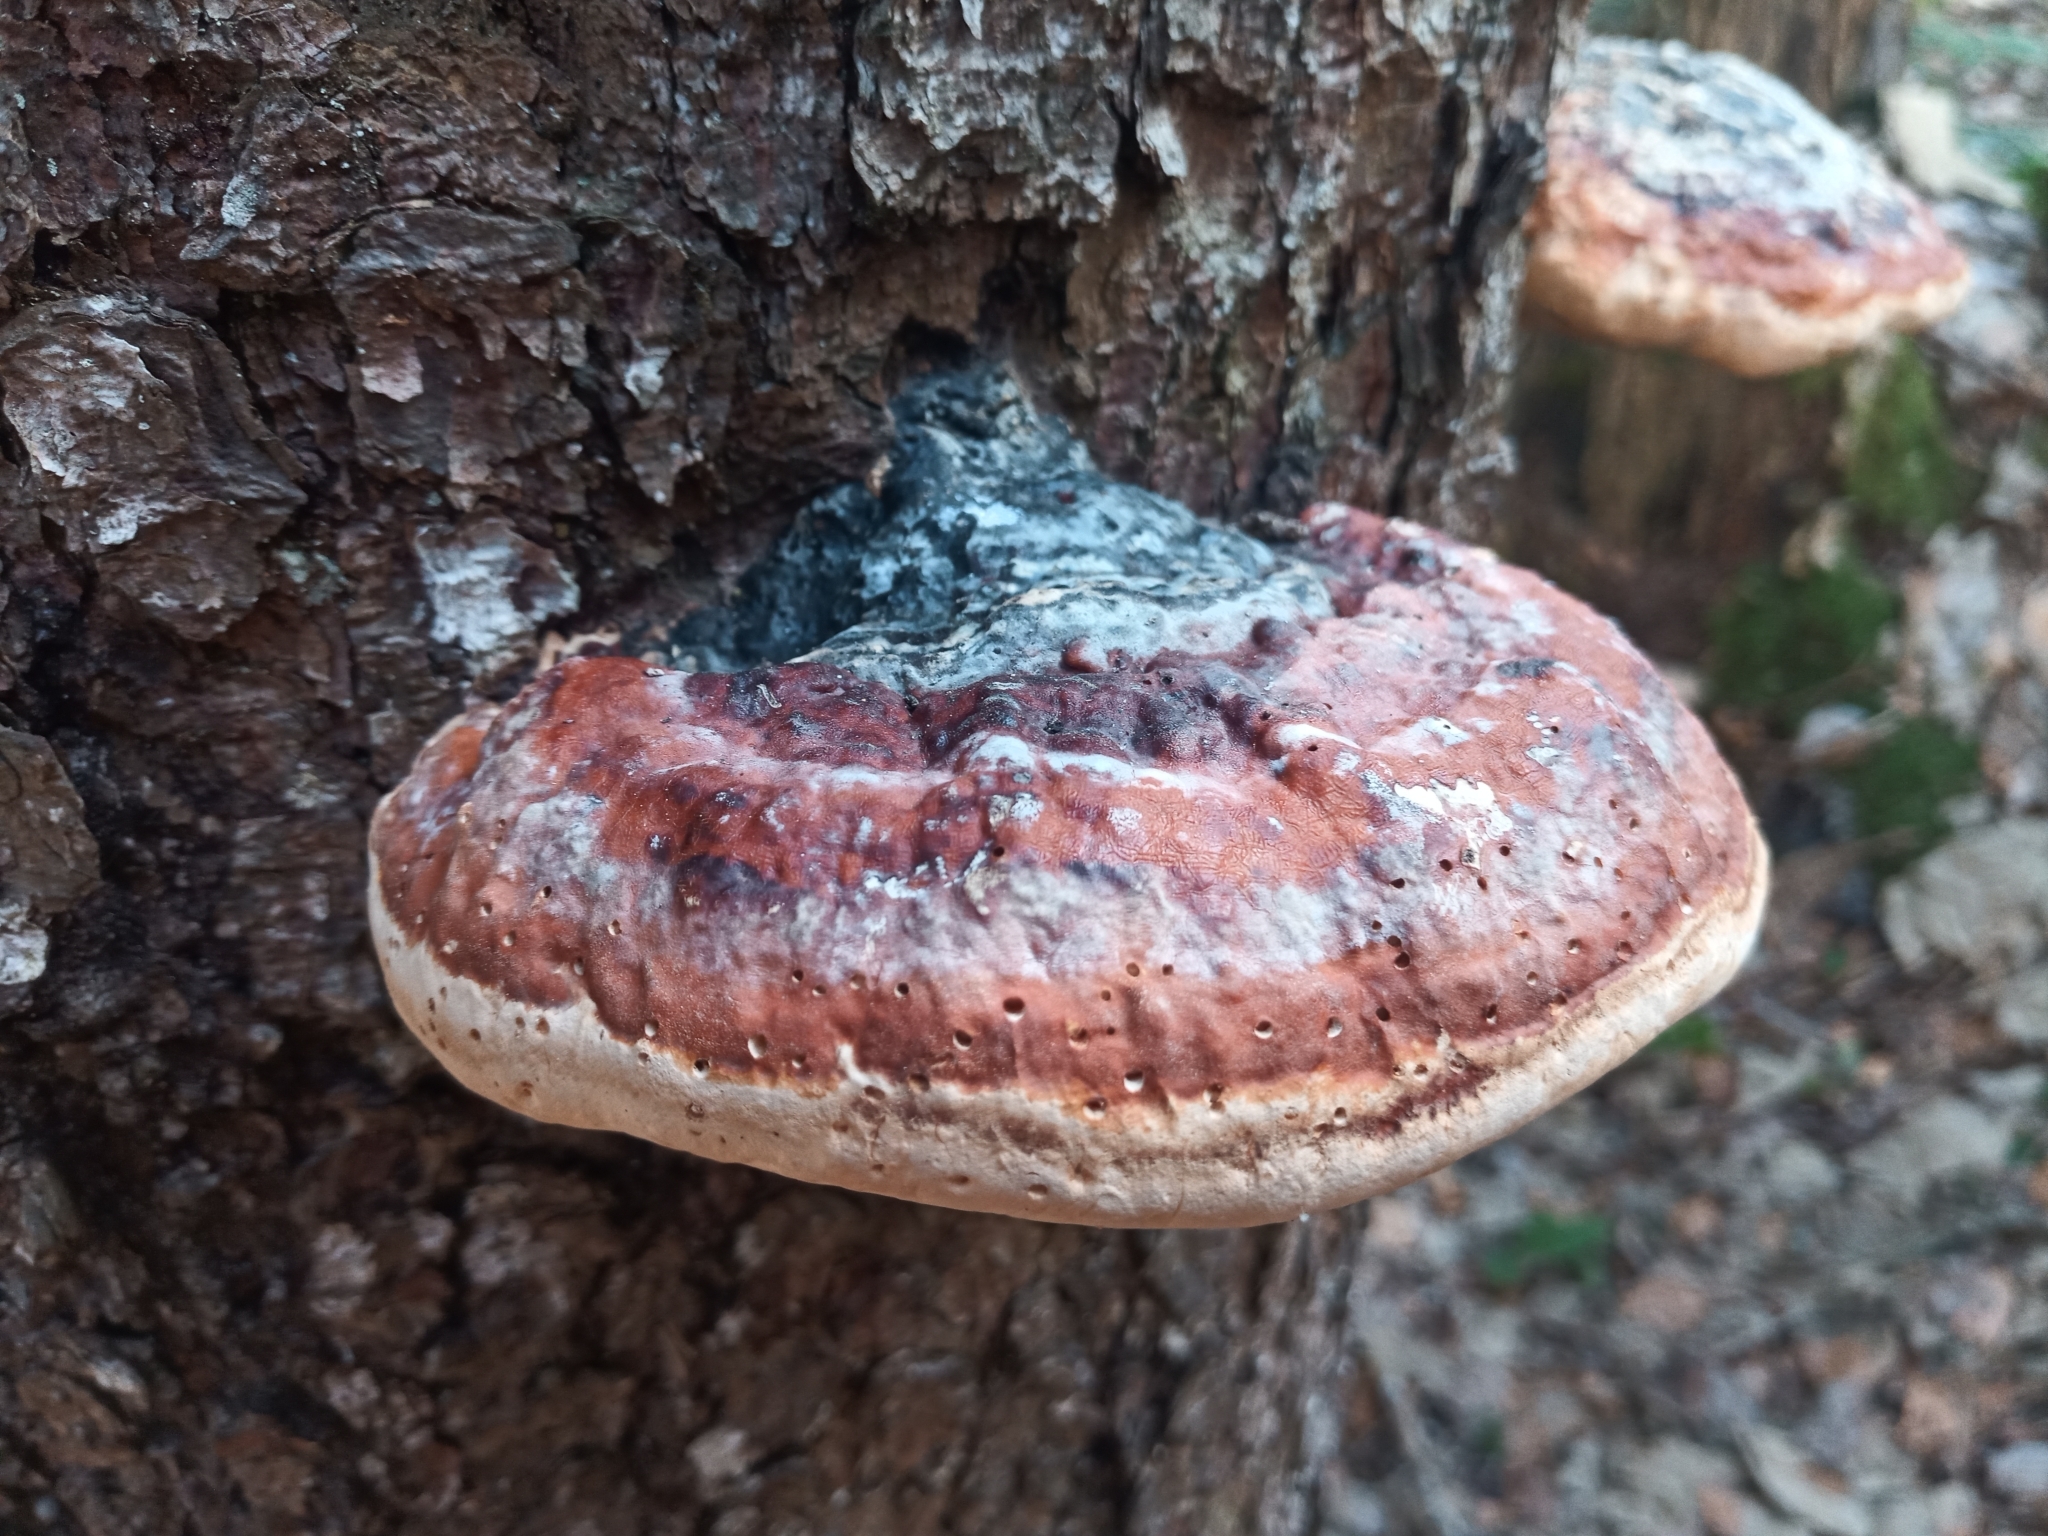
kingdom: Fungi
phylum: Basidiomycota
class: Agaricomycetes
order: Polyporales
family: Fomitopsidaceae
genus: Fomitopsis
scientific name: Fomitopsis pinicola
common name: Red-belted bracket
